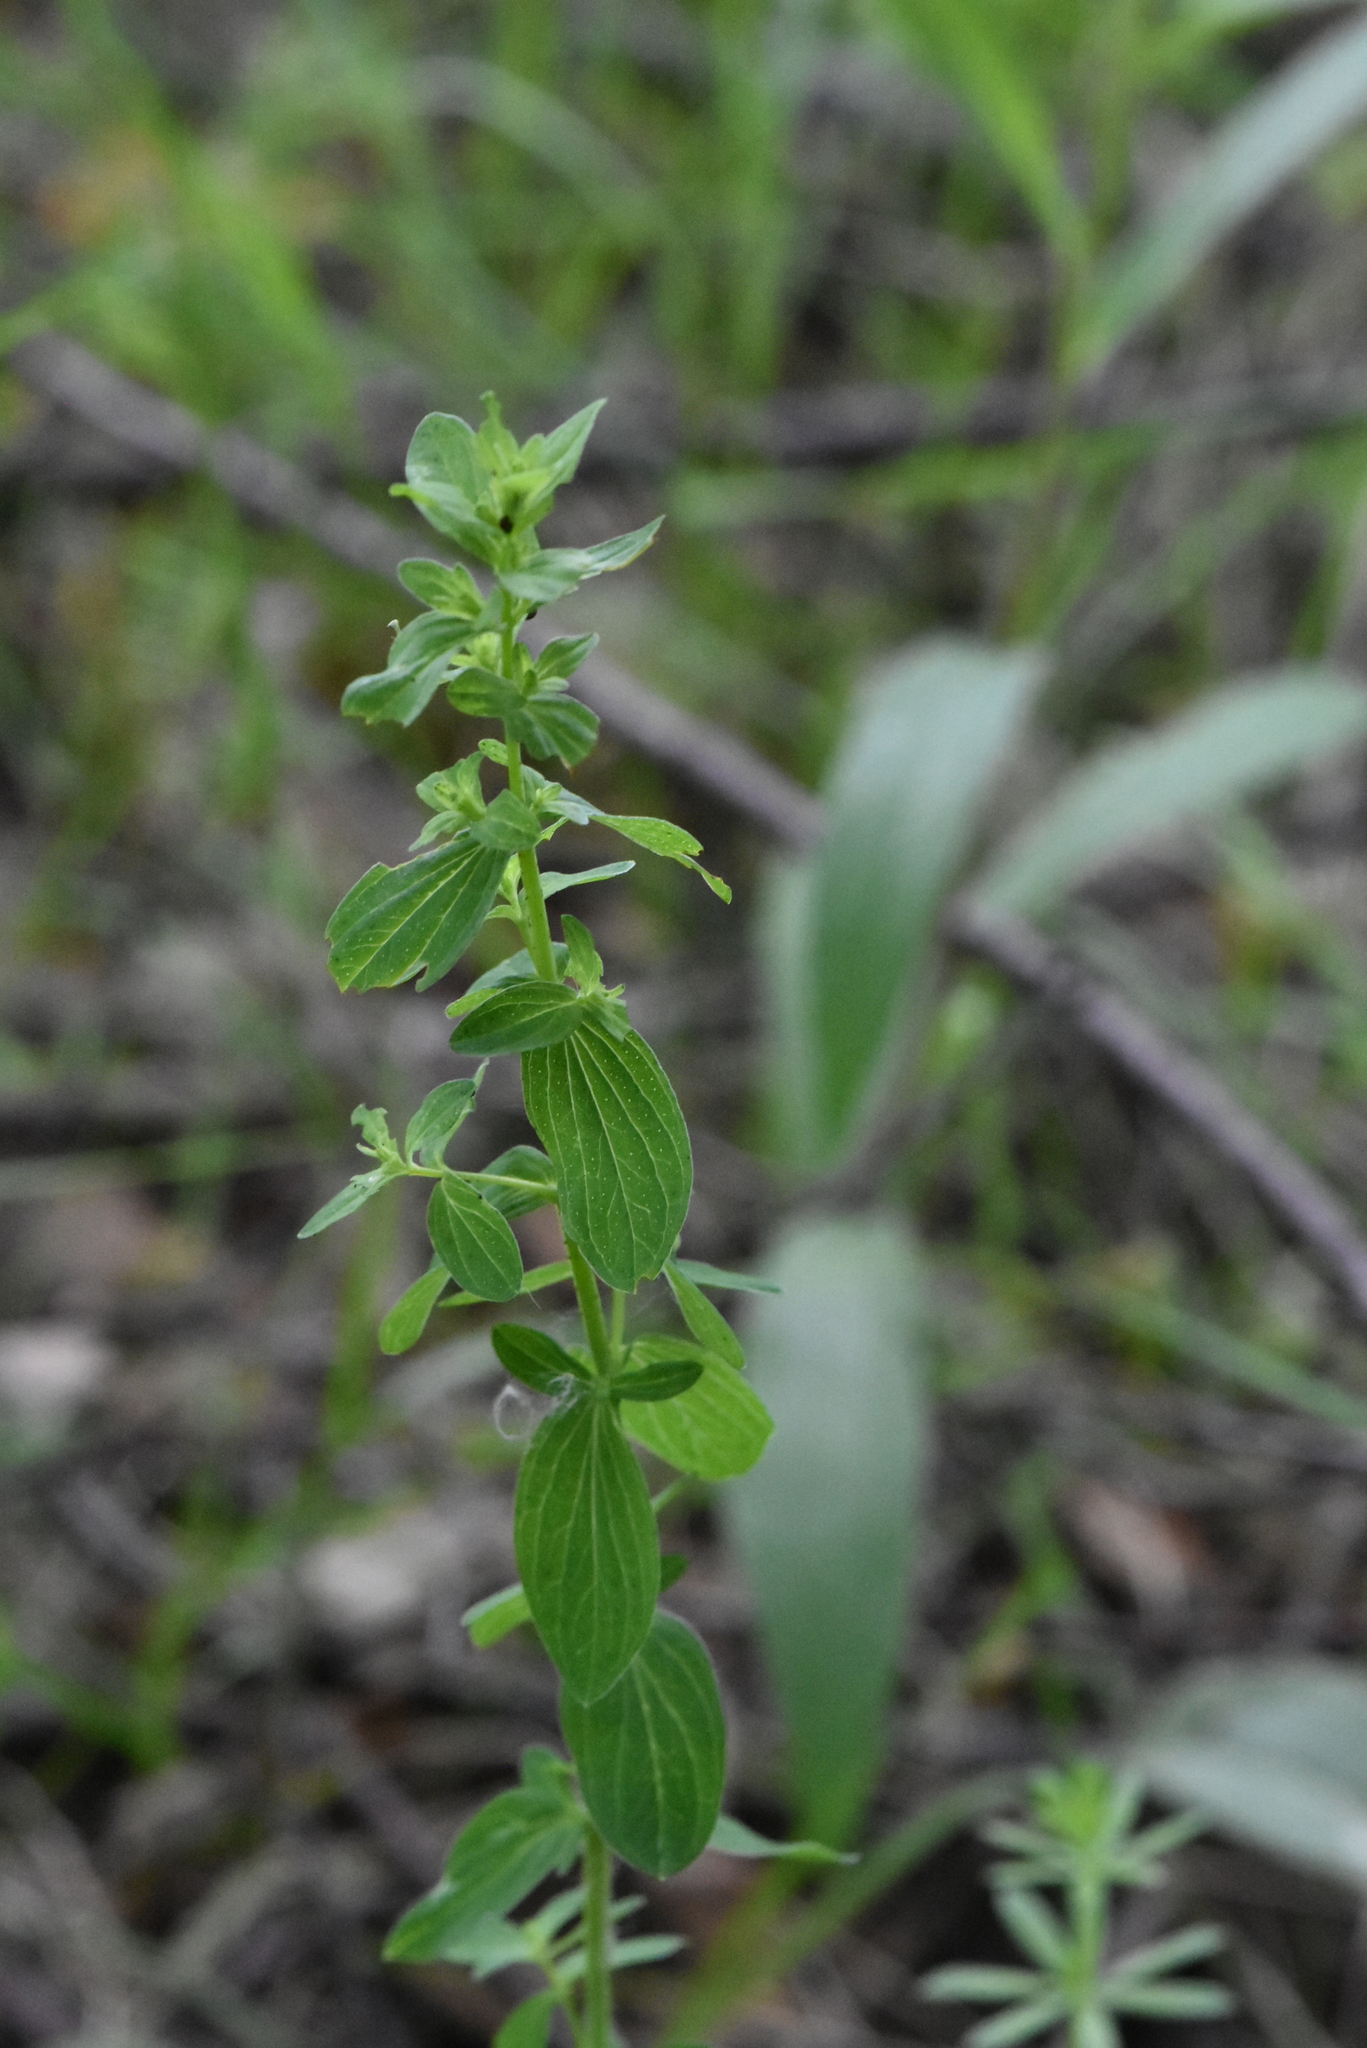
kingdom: Plantae
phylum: Tracheophyta
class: Magnoliopsida
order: Malpighiales
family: Hypericaceae
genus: Hypericum
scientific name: Hypericum maculatum
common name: Imperforate st. john's-wort
